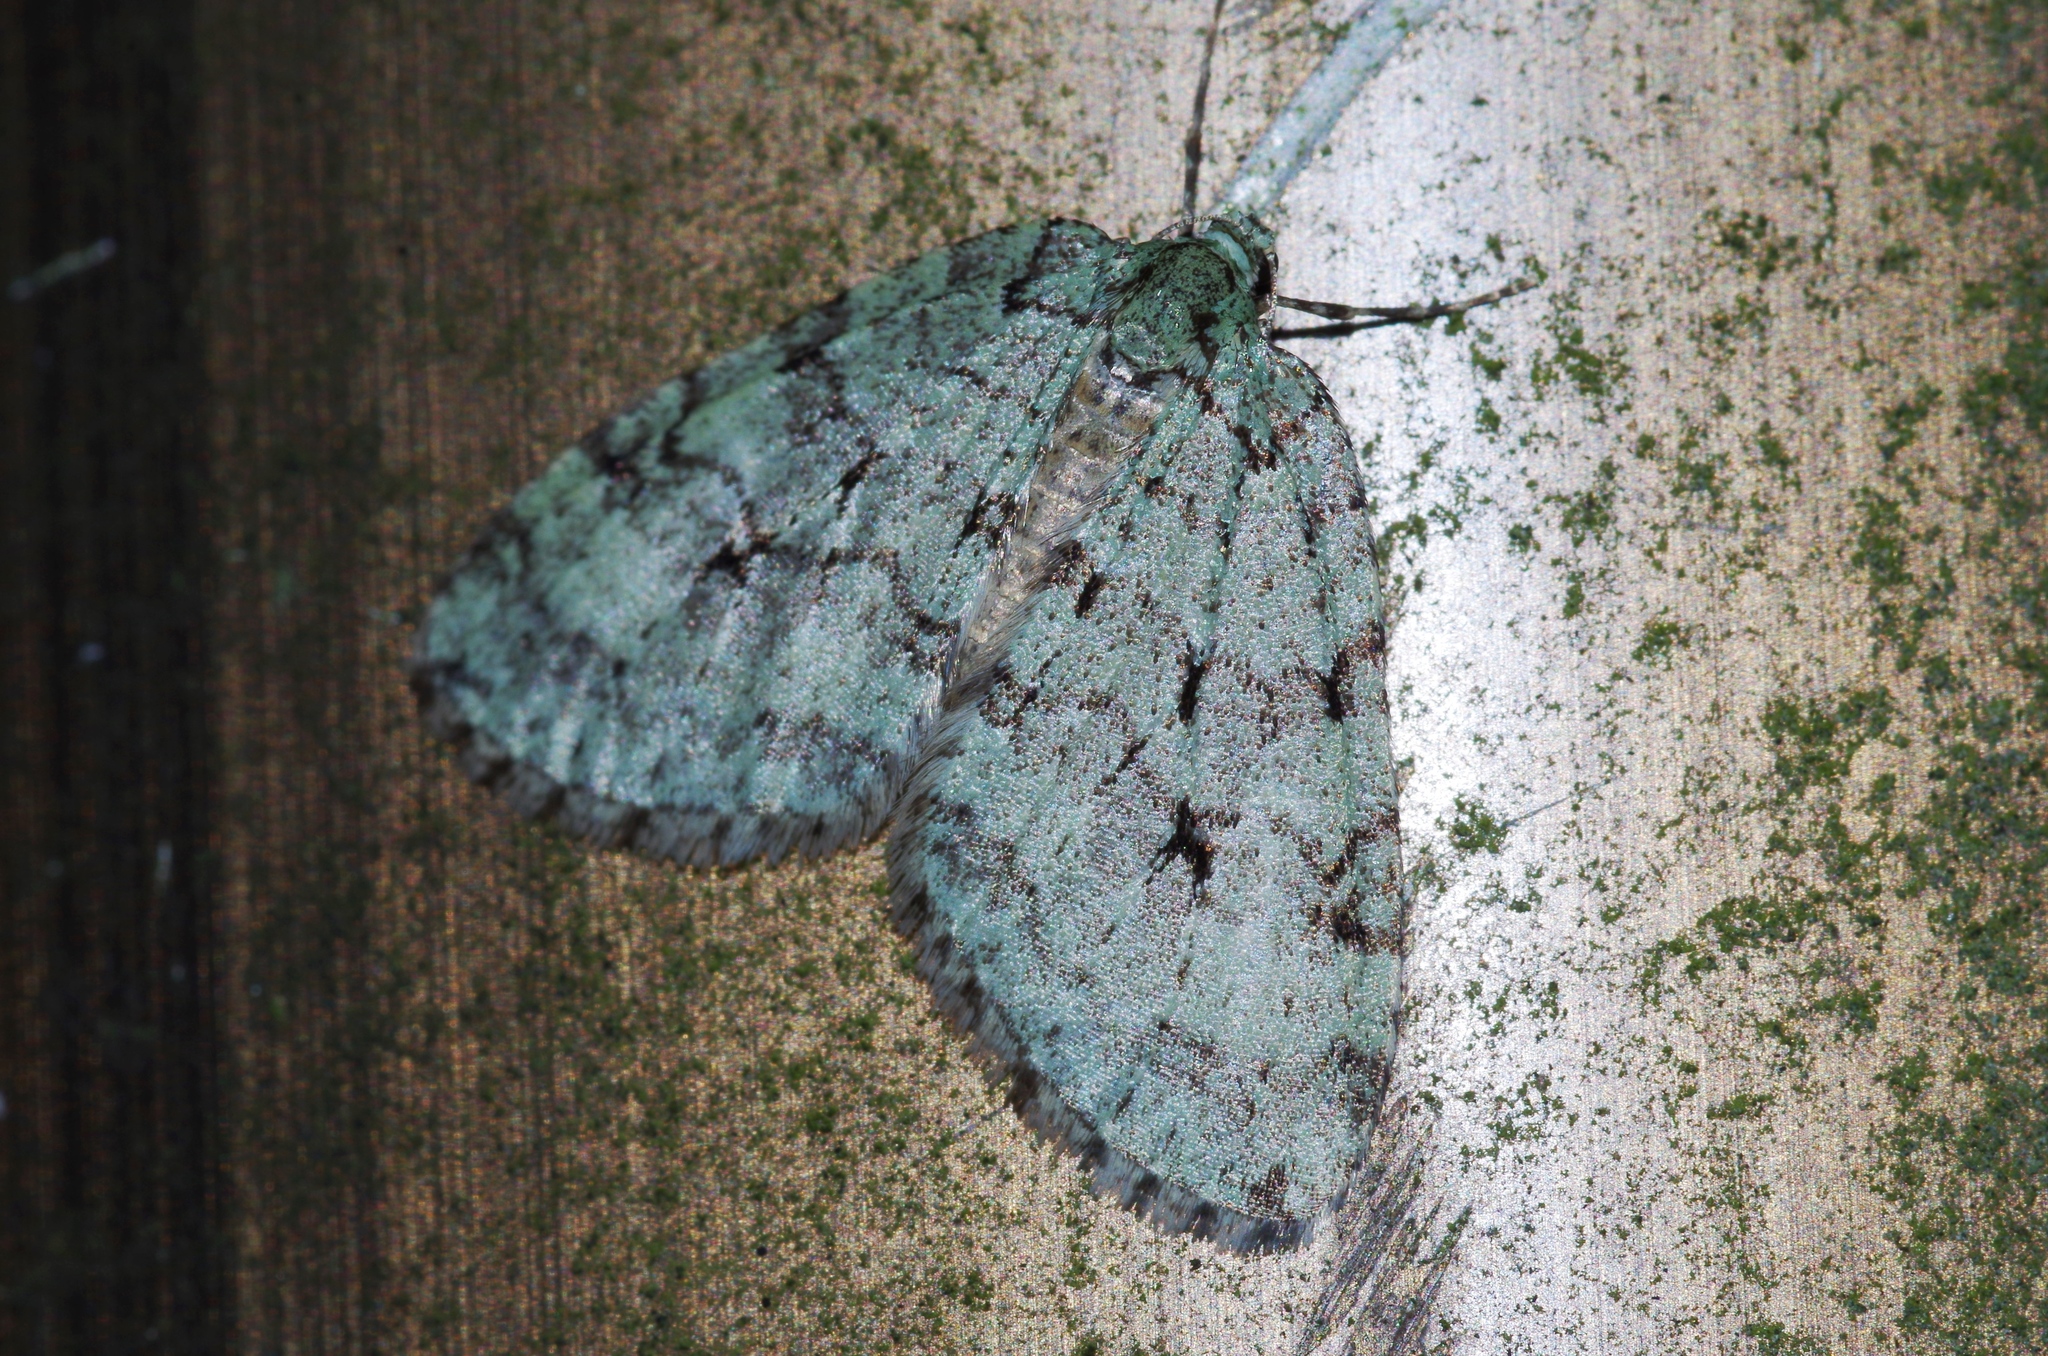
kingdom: Animalia
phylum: Arthropoda
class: Insecta
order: Lepidoptera
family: Geometridae
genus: Epirrita
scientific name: Epirrita viridipurpurescens
